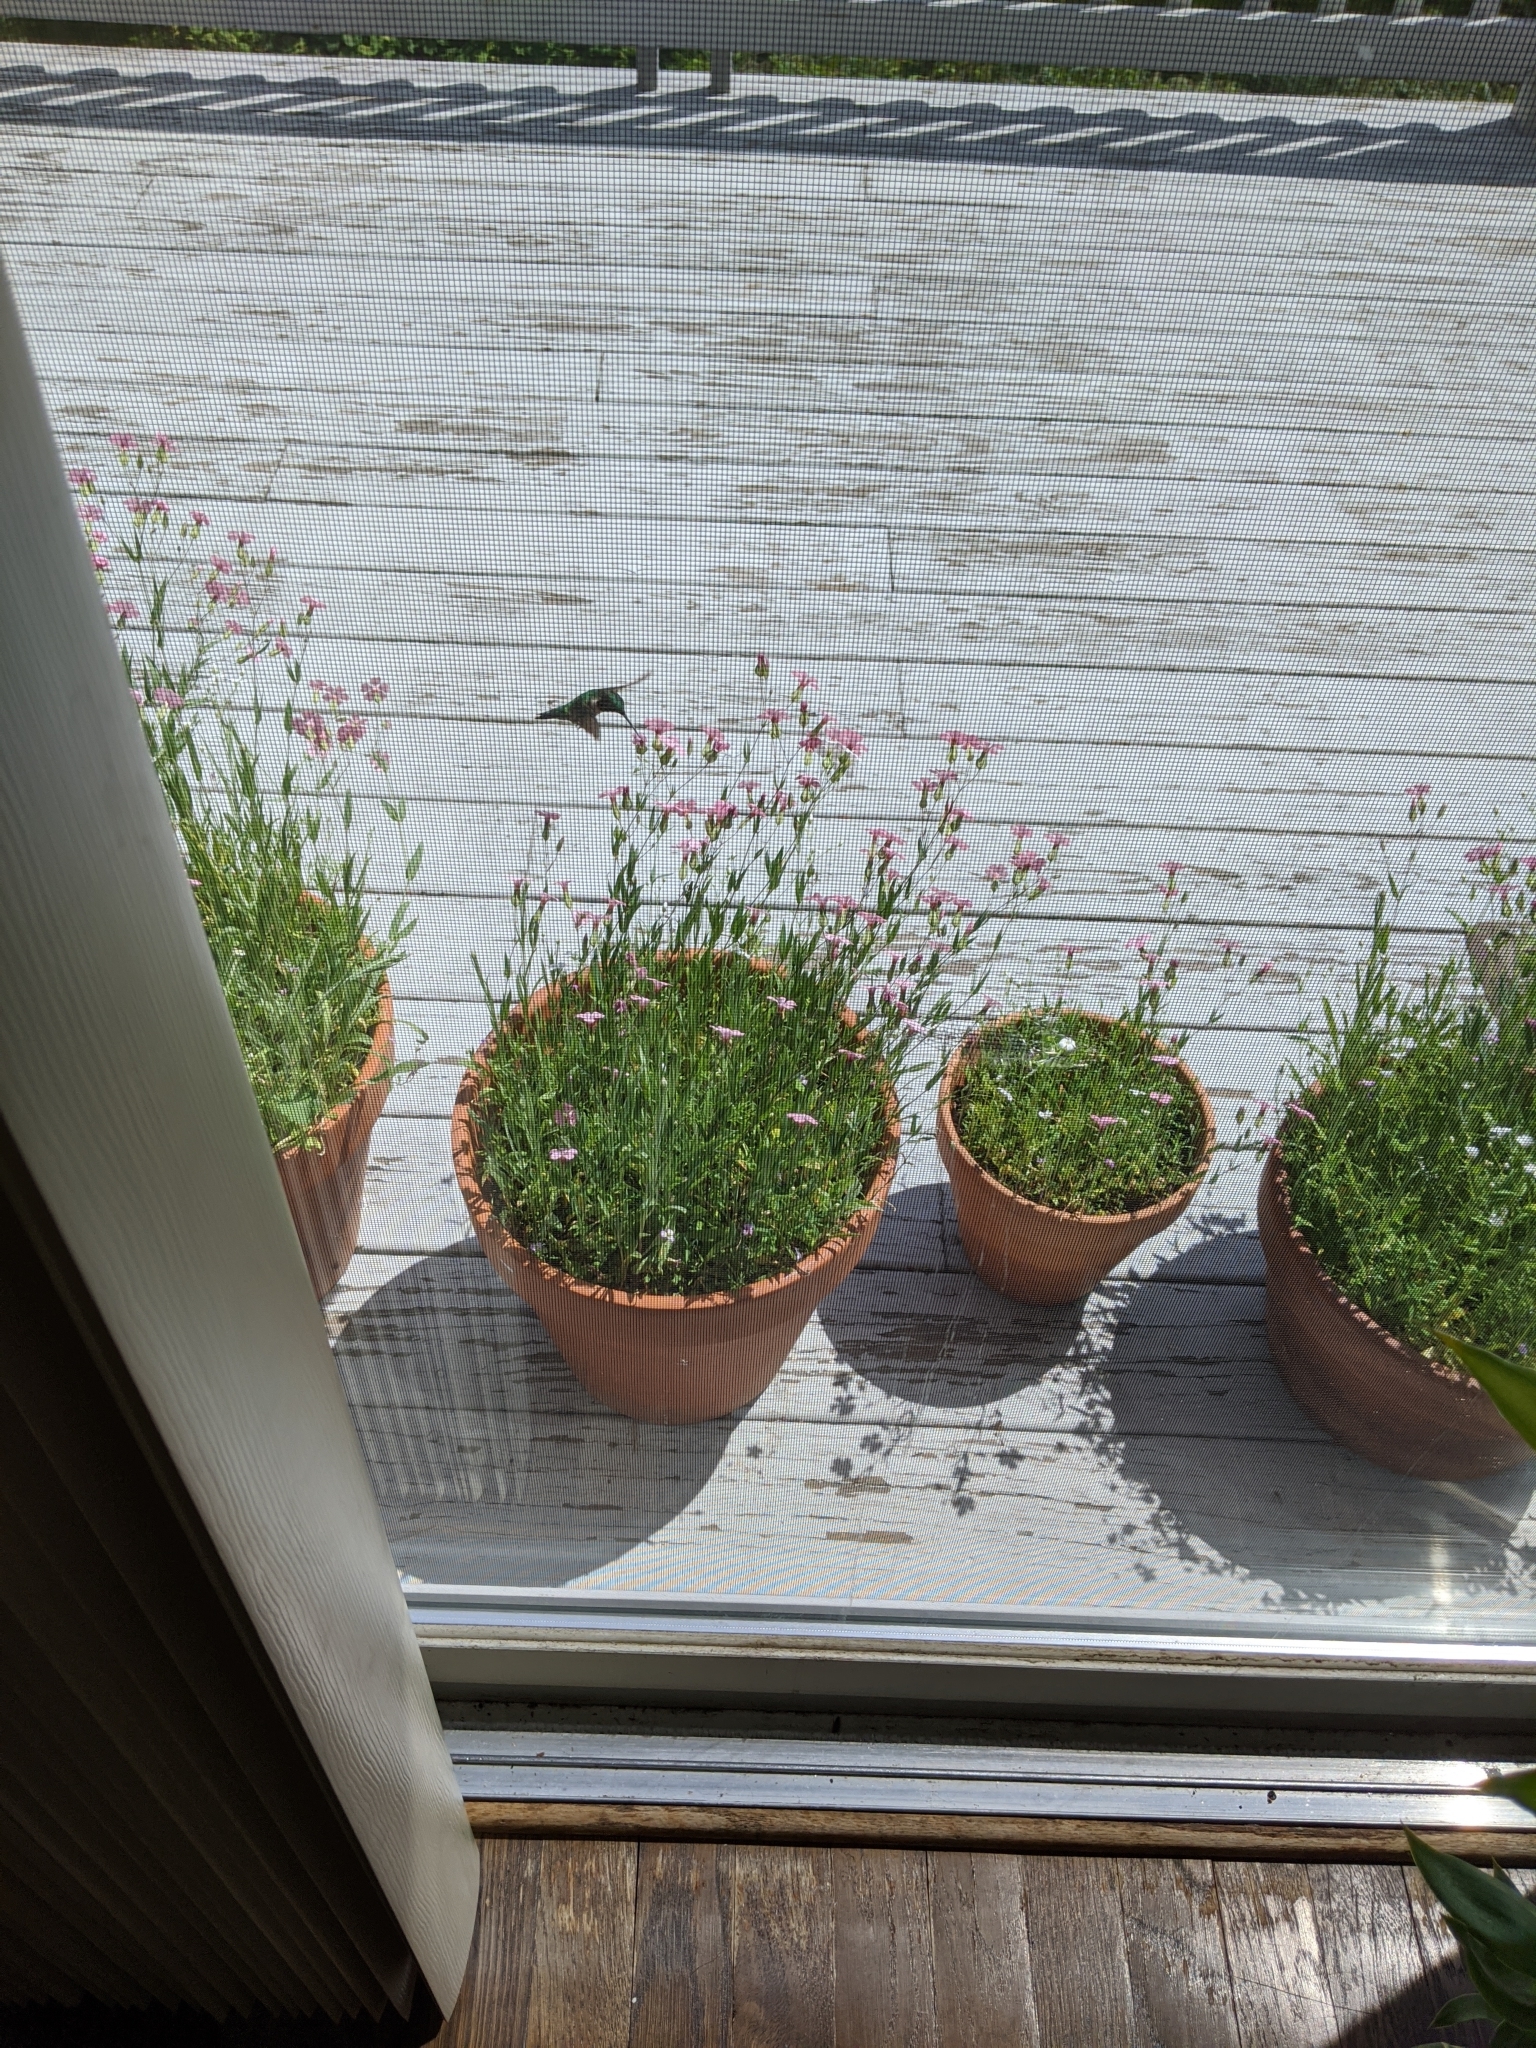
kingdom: Animalia
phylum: Chordata
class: Aves
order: Apodiformes
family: Trochilidae
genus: Archilochus
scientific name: Archilochus colubris
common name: Ruby-throated hummingbird
